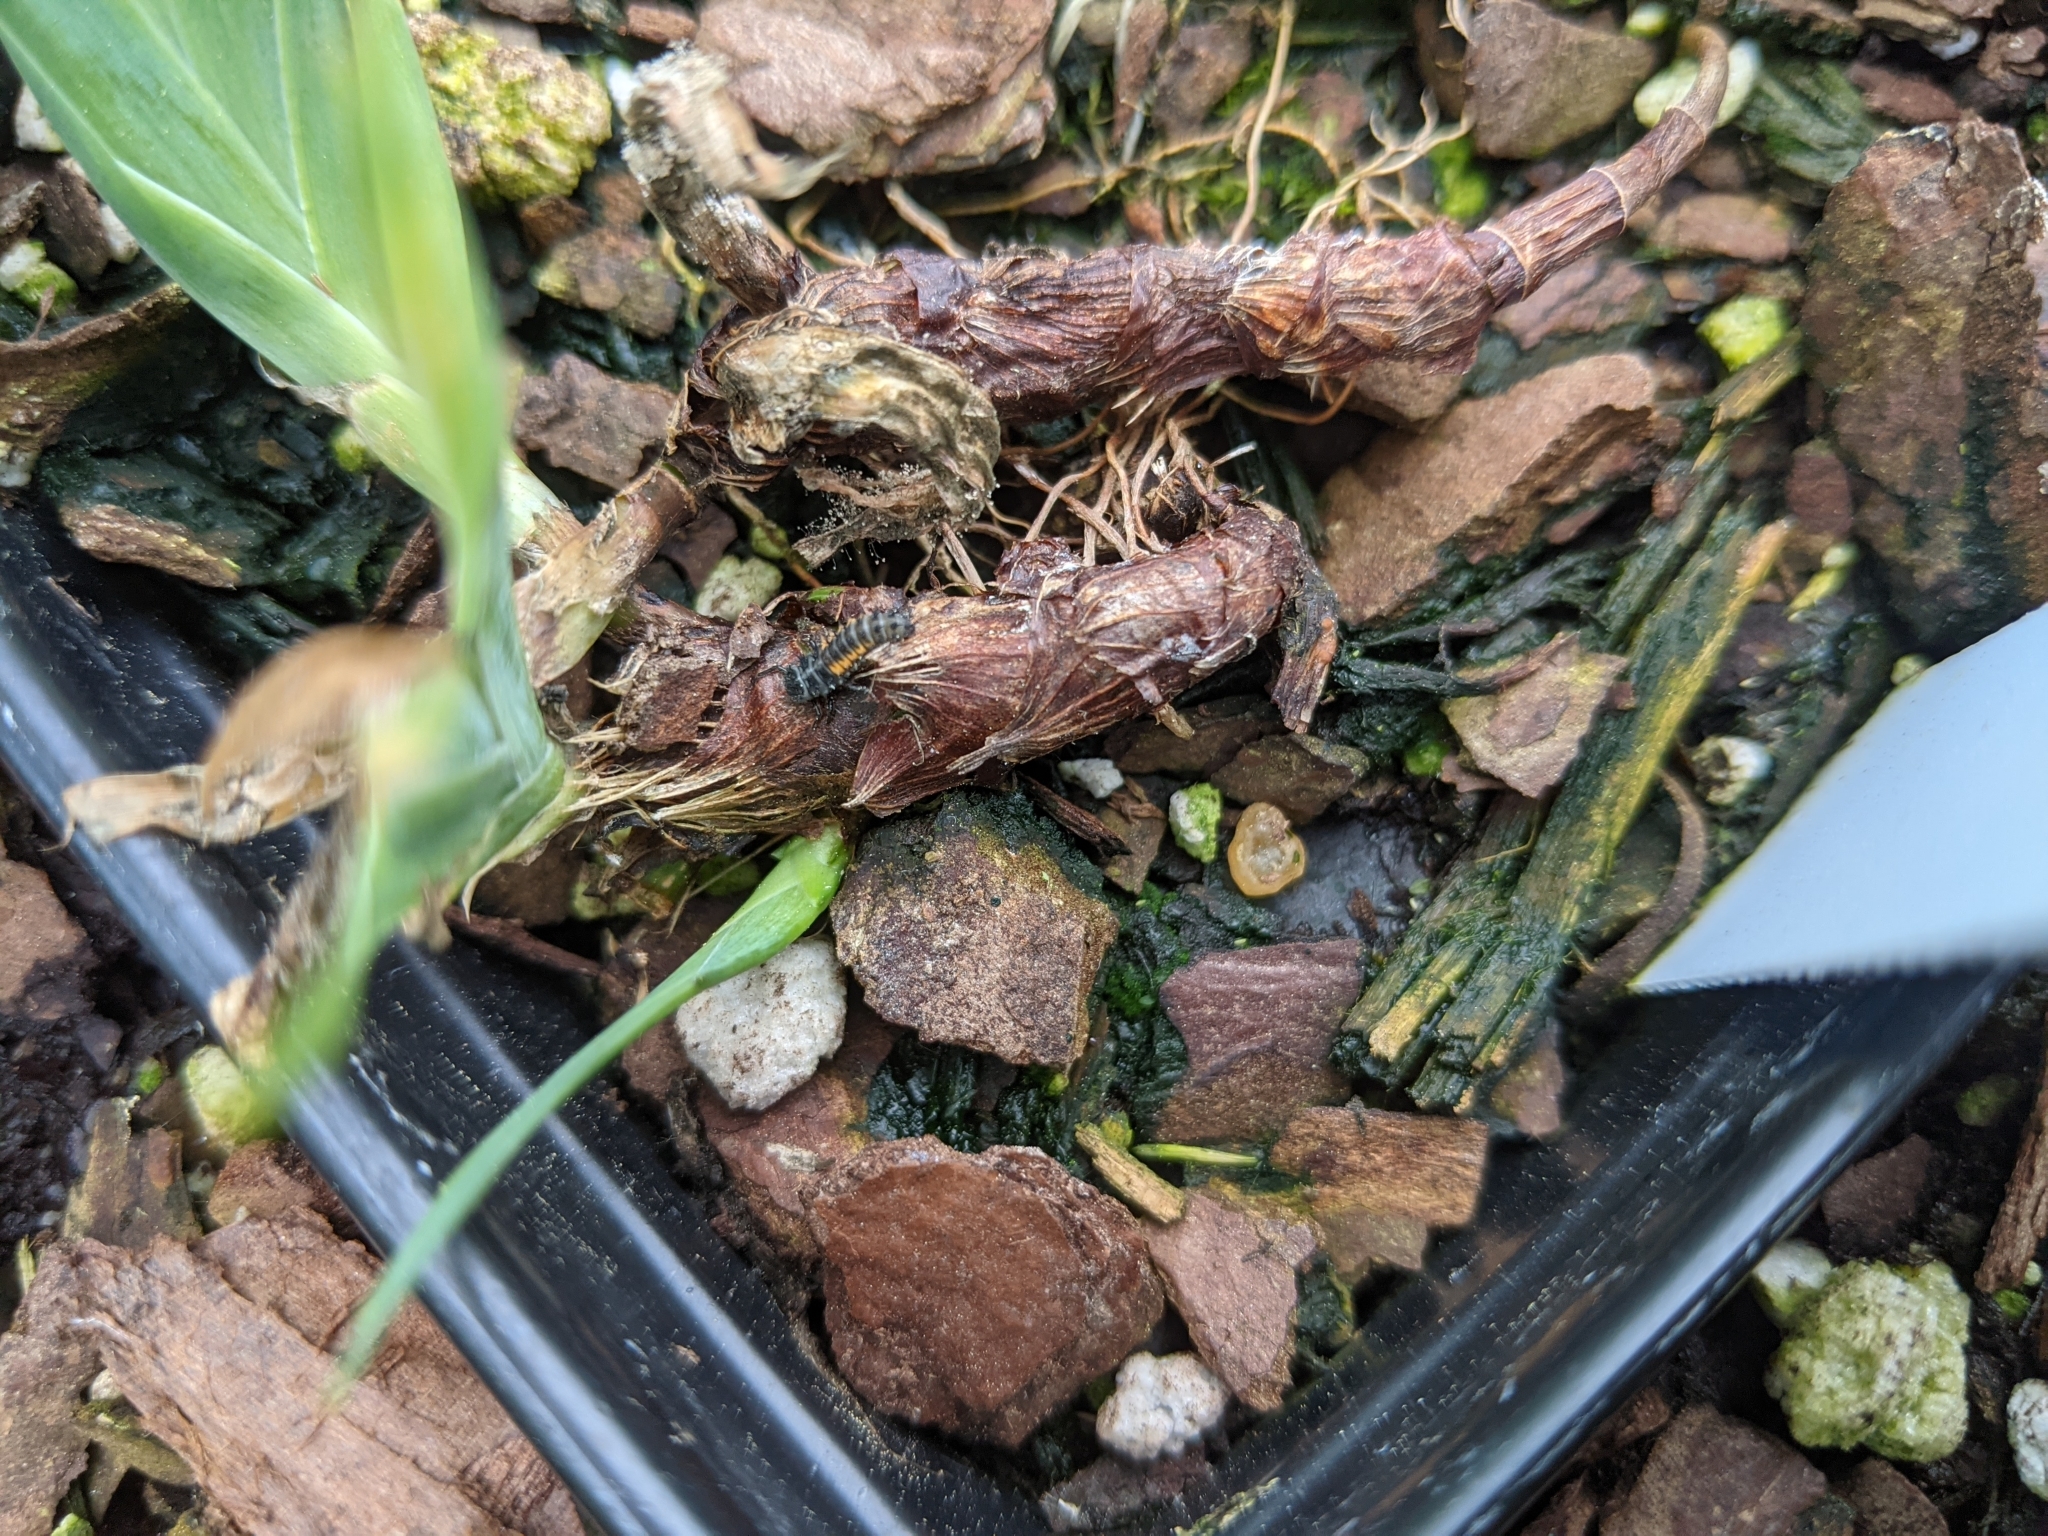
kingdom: Animalia
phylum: Arthropoda
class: Insecta
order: Coleoptera
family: Coccinellidae
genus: Harmonia
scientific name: Harmonia axyridis
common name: Harlequin ladybird
